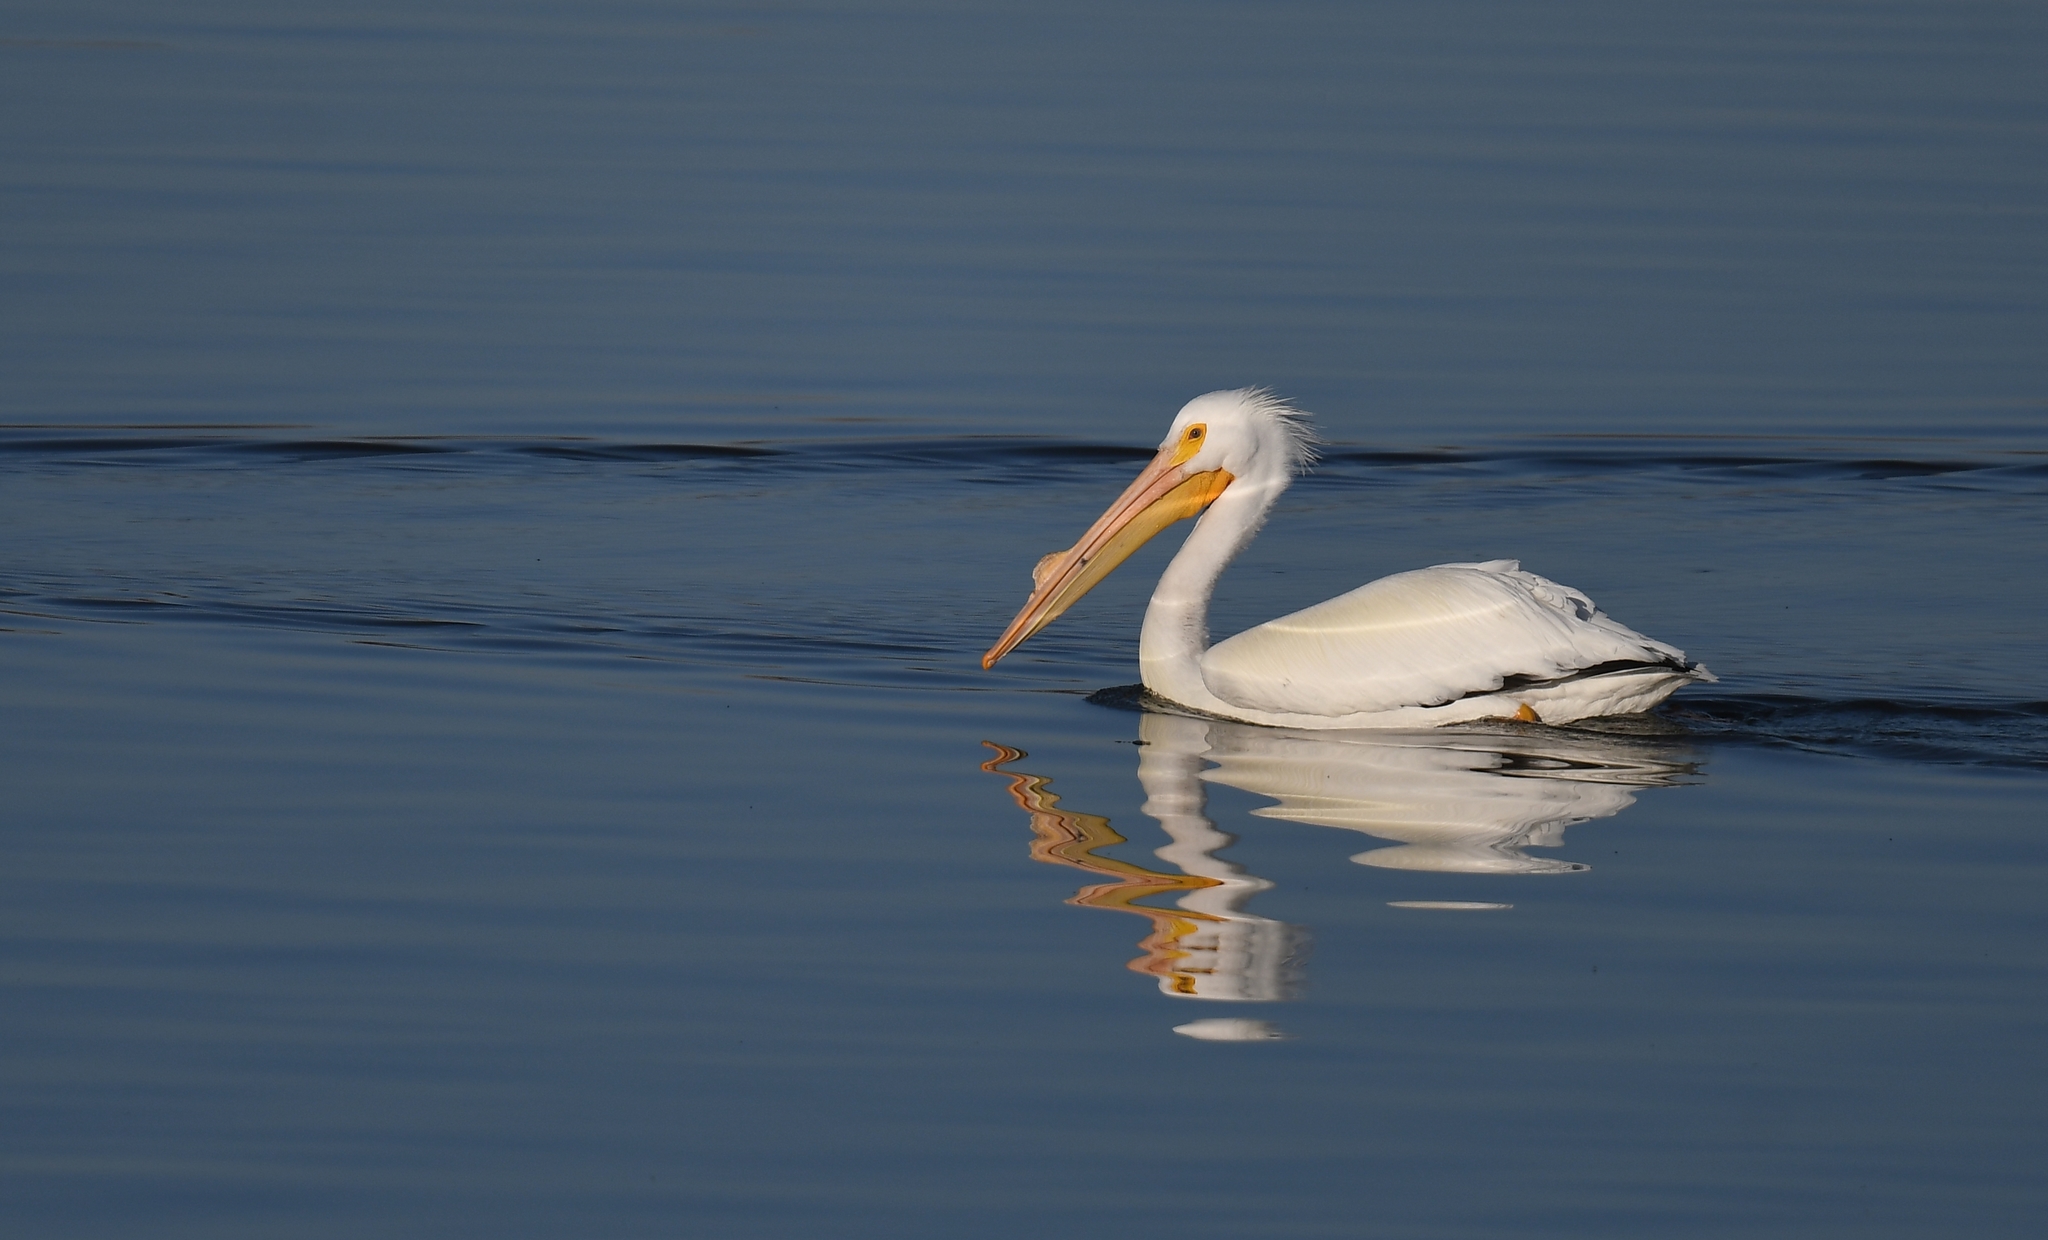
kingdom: Animalia
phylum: Chordata
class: Aves
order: Pelecaniformes
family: Pelecanidae
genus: Pelecanus
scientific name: Pelecanus erythrorhynchos
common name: American white pelican
